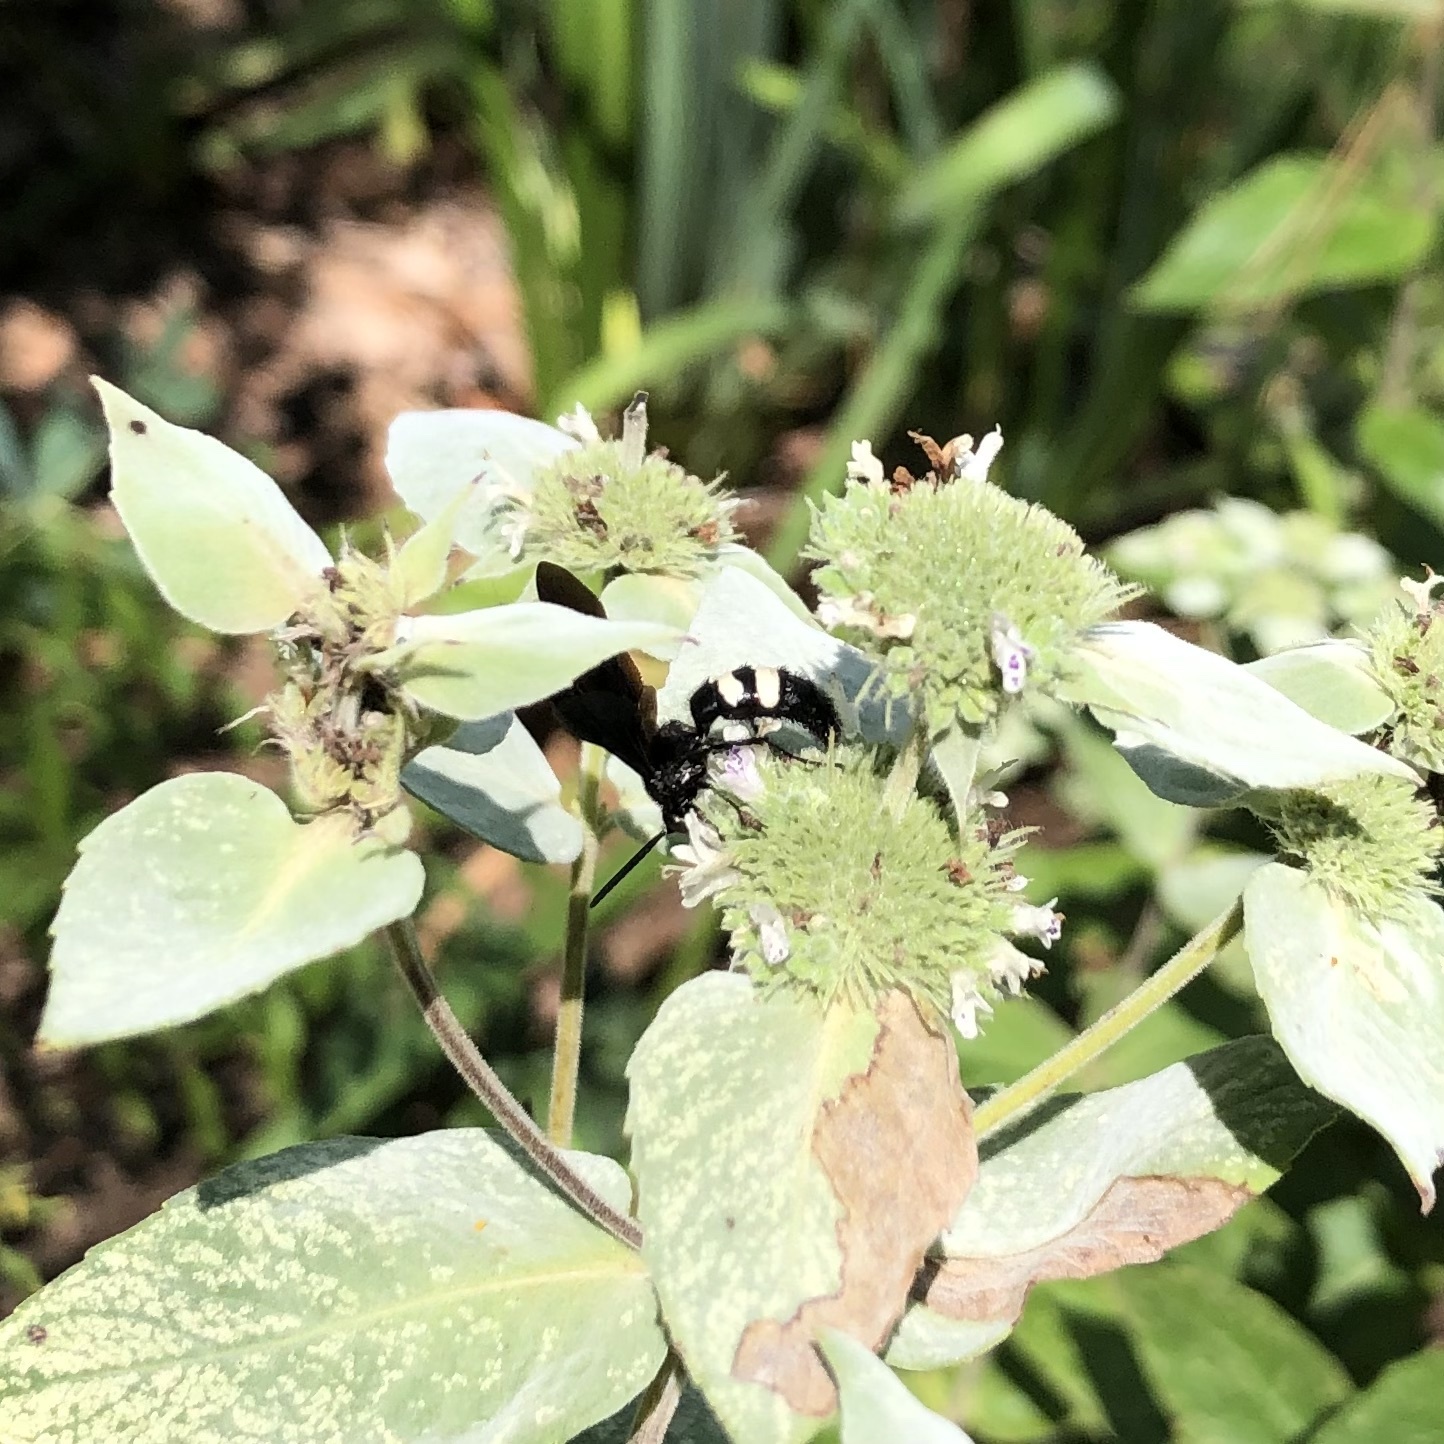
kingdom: Animalia
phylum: Arthropoda
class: Insecta
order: Hymenoptera
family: Scoliidae
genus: Scolia
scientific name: Scolia bicincta
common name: Double-banded scoliid wasp
